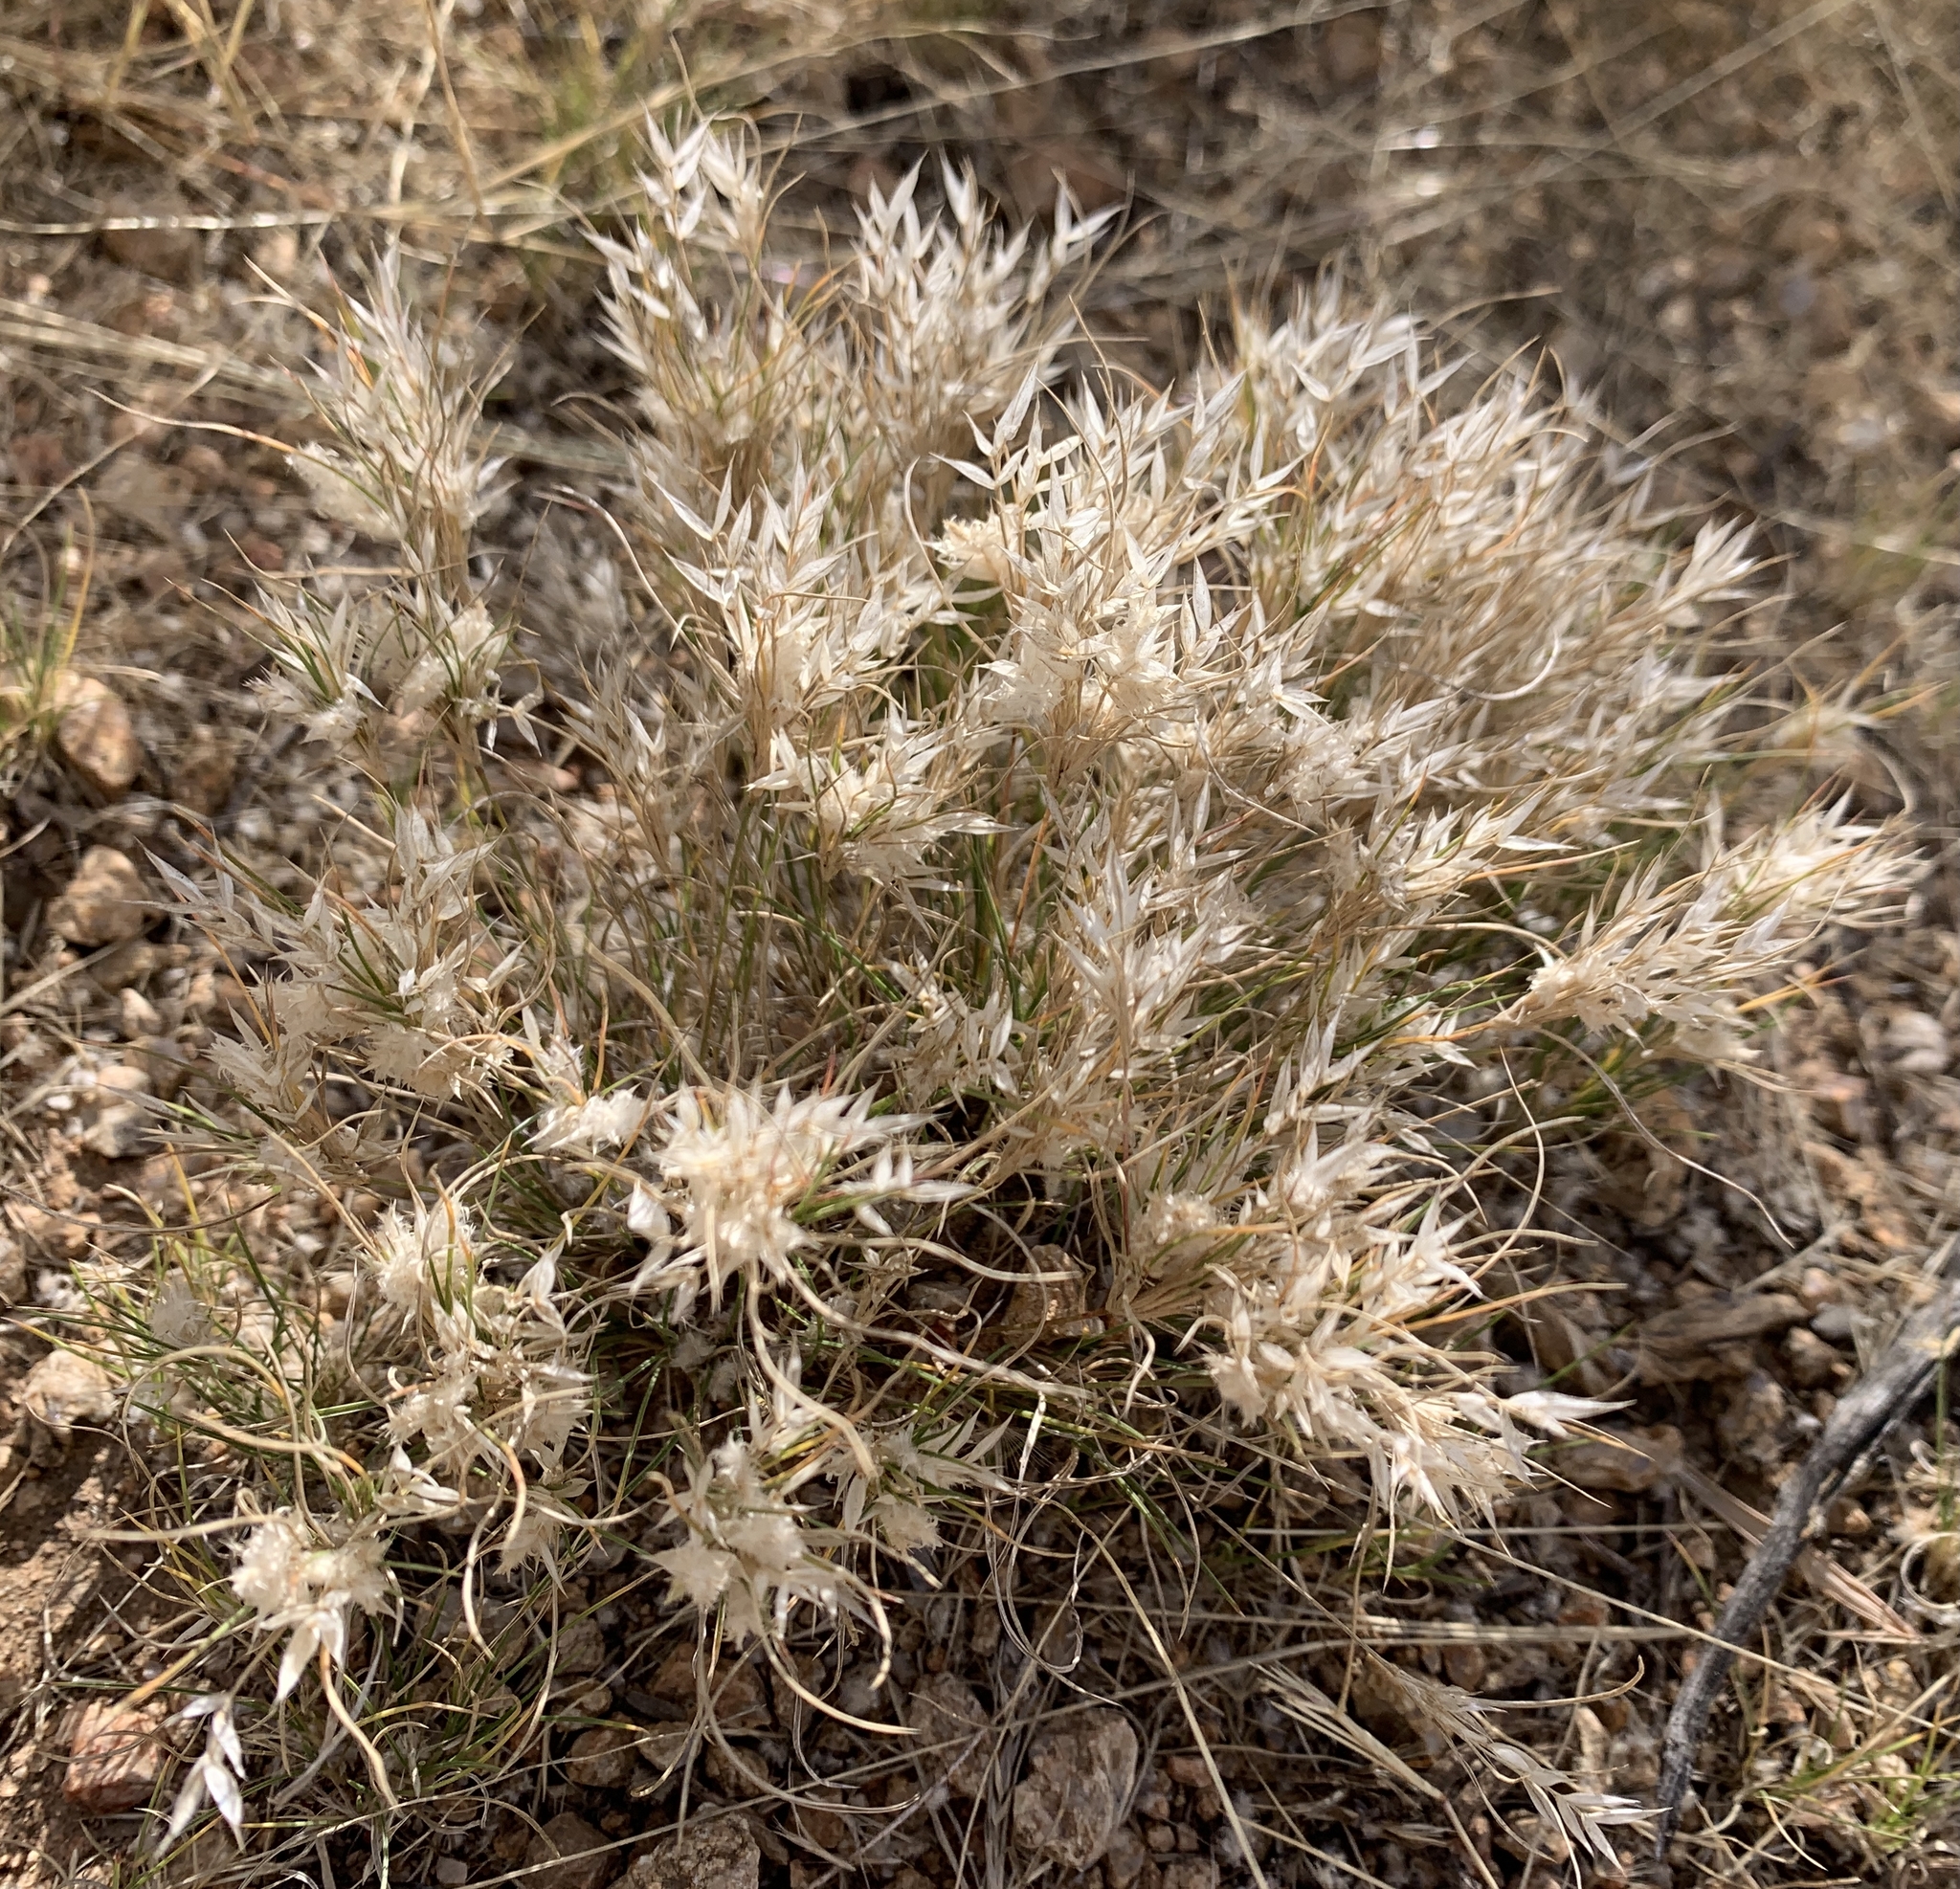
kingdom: Plantae
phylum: Tracheophyta
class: Liliopsida
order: Poales
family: Poaceae
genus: Dasyochloa
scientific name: Dasyochloa pulchella
